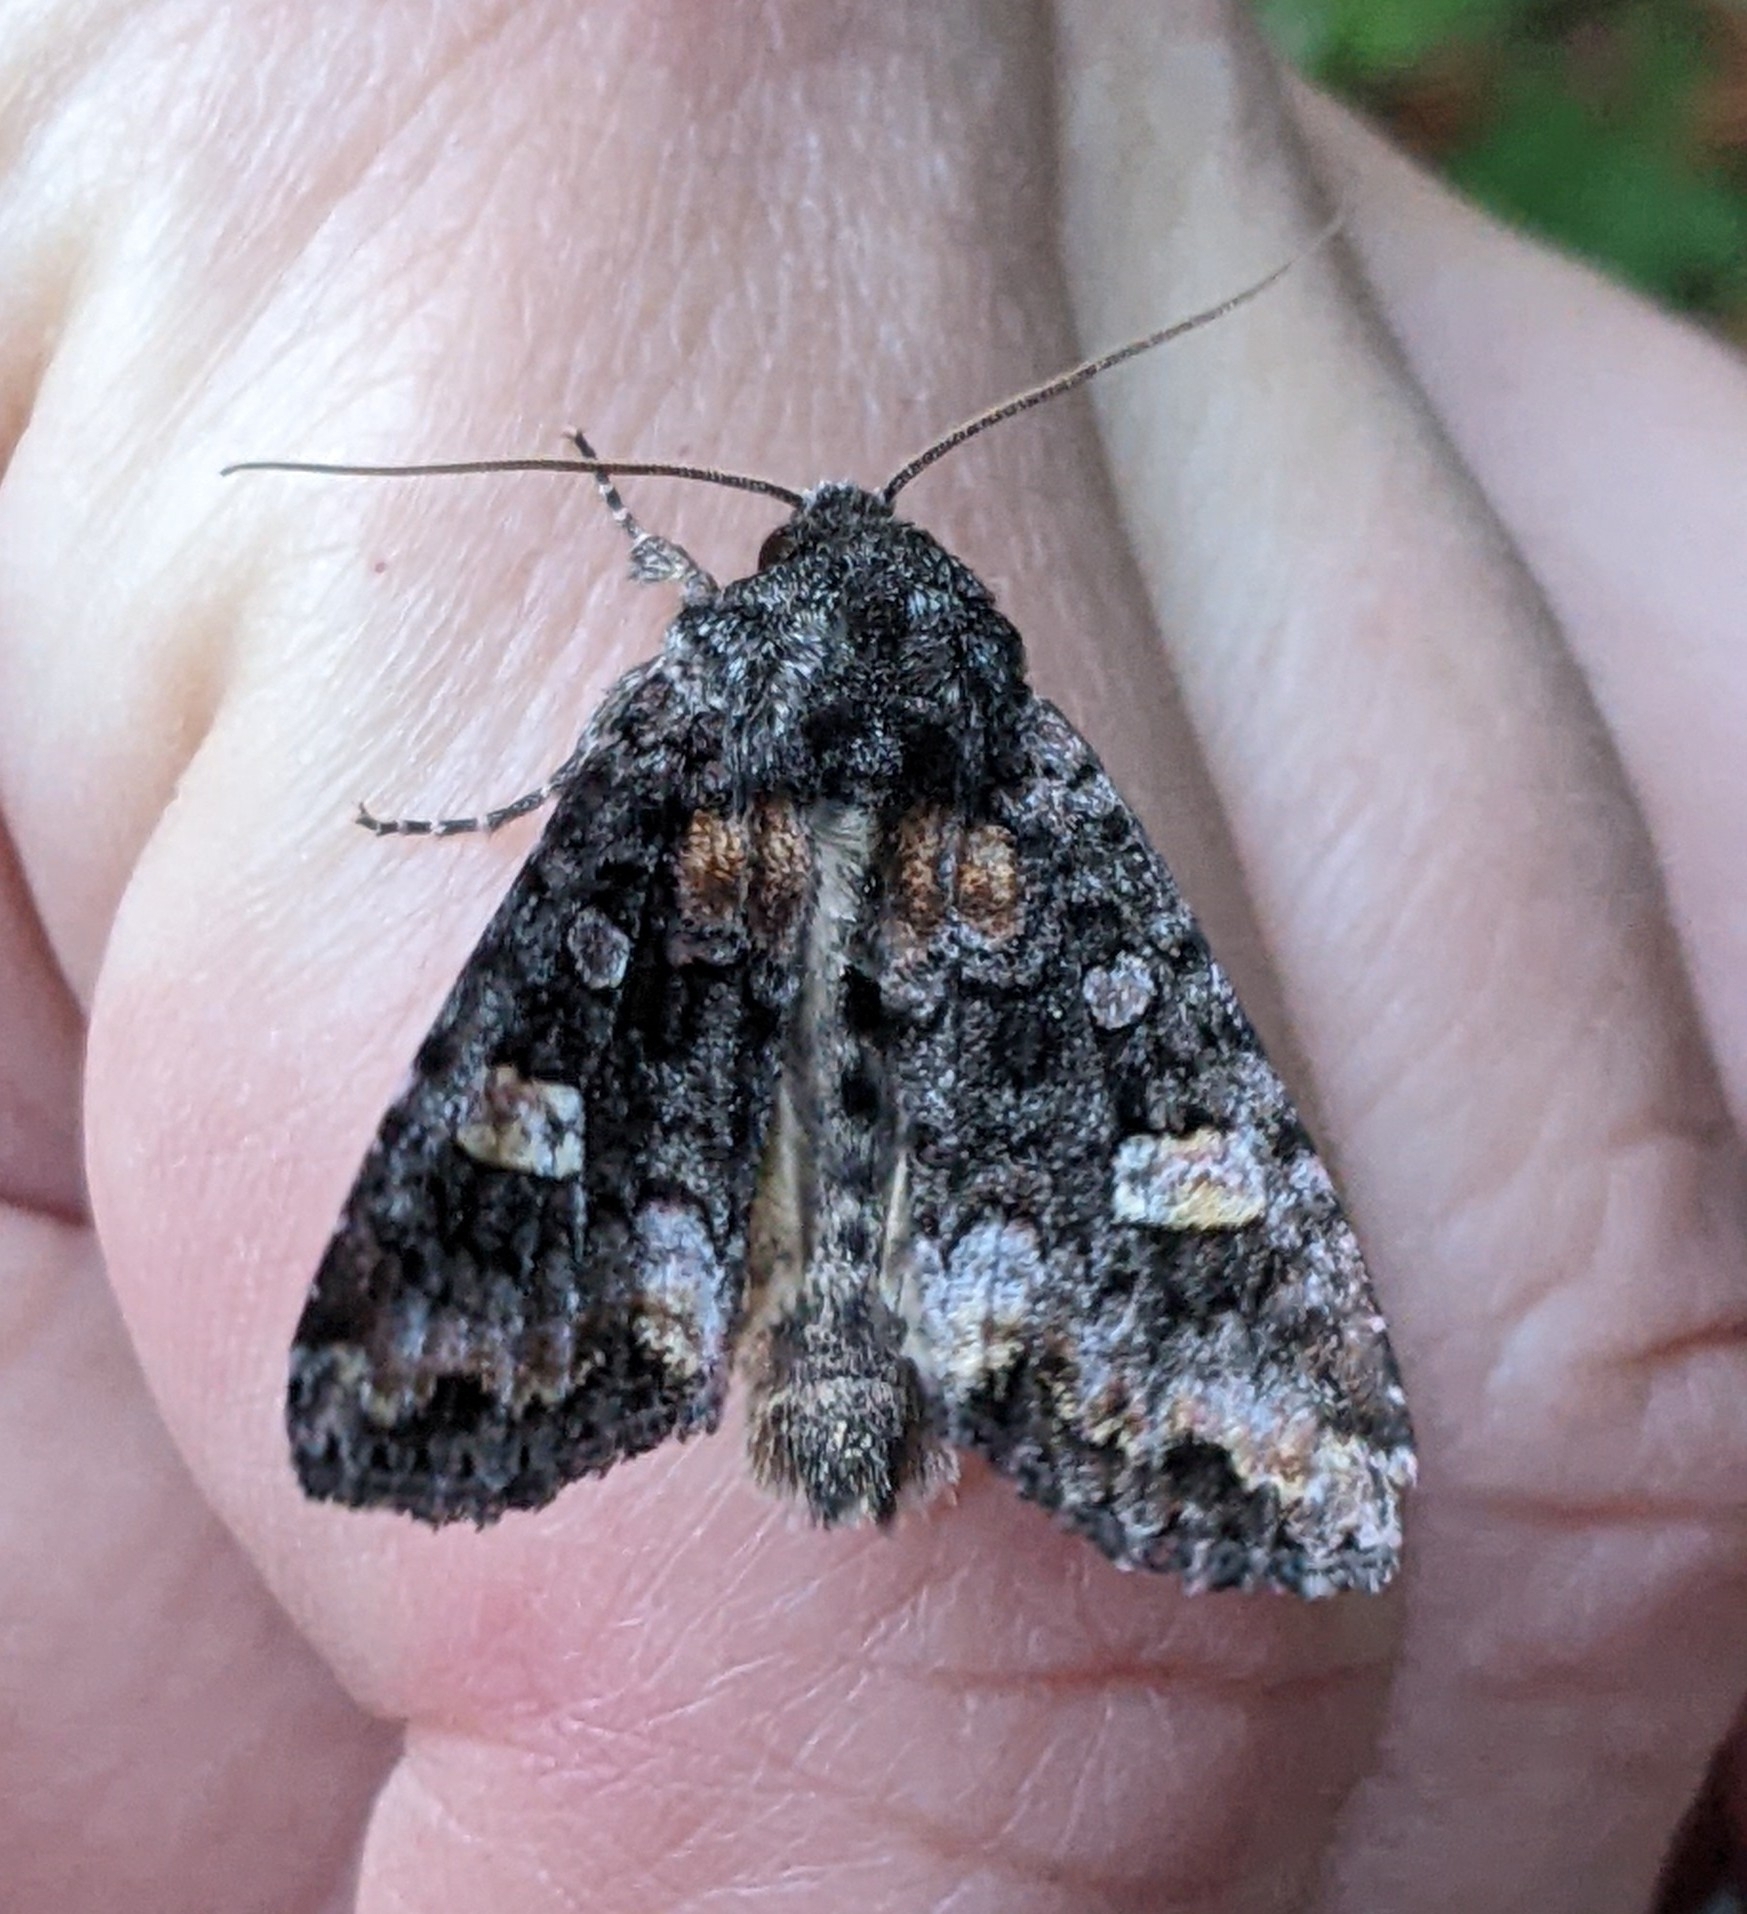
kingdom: Animalia
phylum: Arthropoda
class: Insecta
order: Lepidoptera
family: Noctuidae
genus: Spiramater
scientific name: Spiramater lutra
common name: Otter spiramater moth
